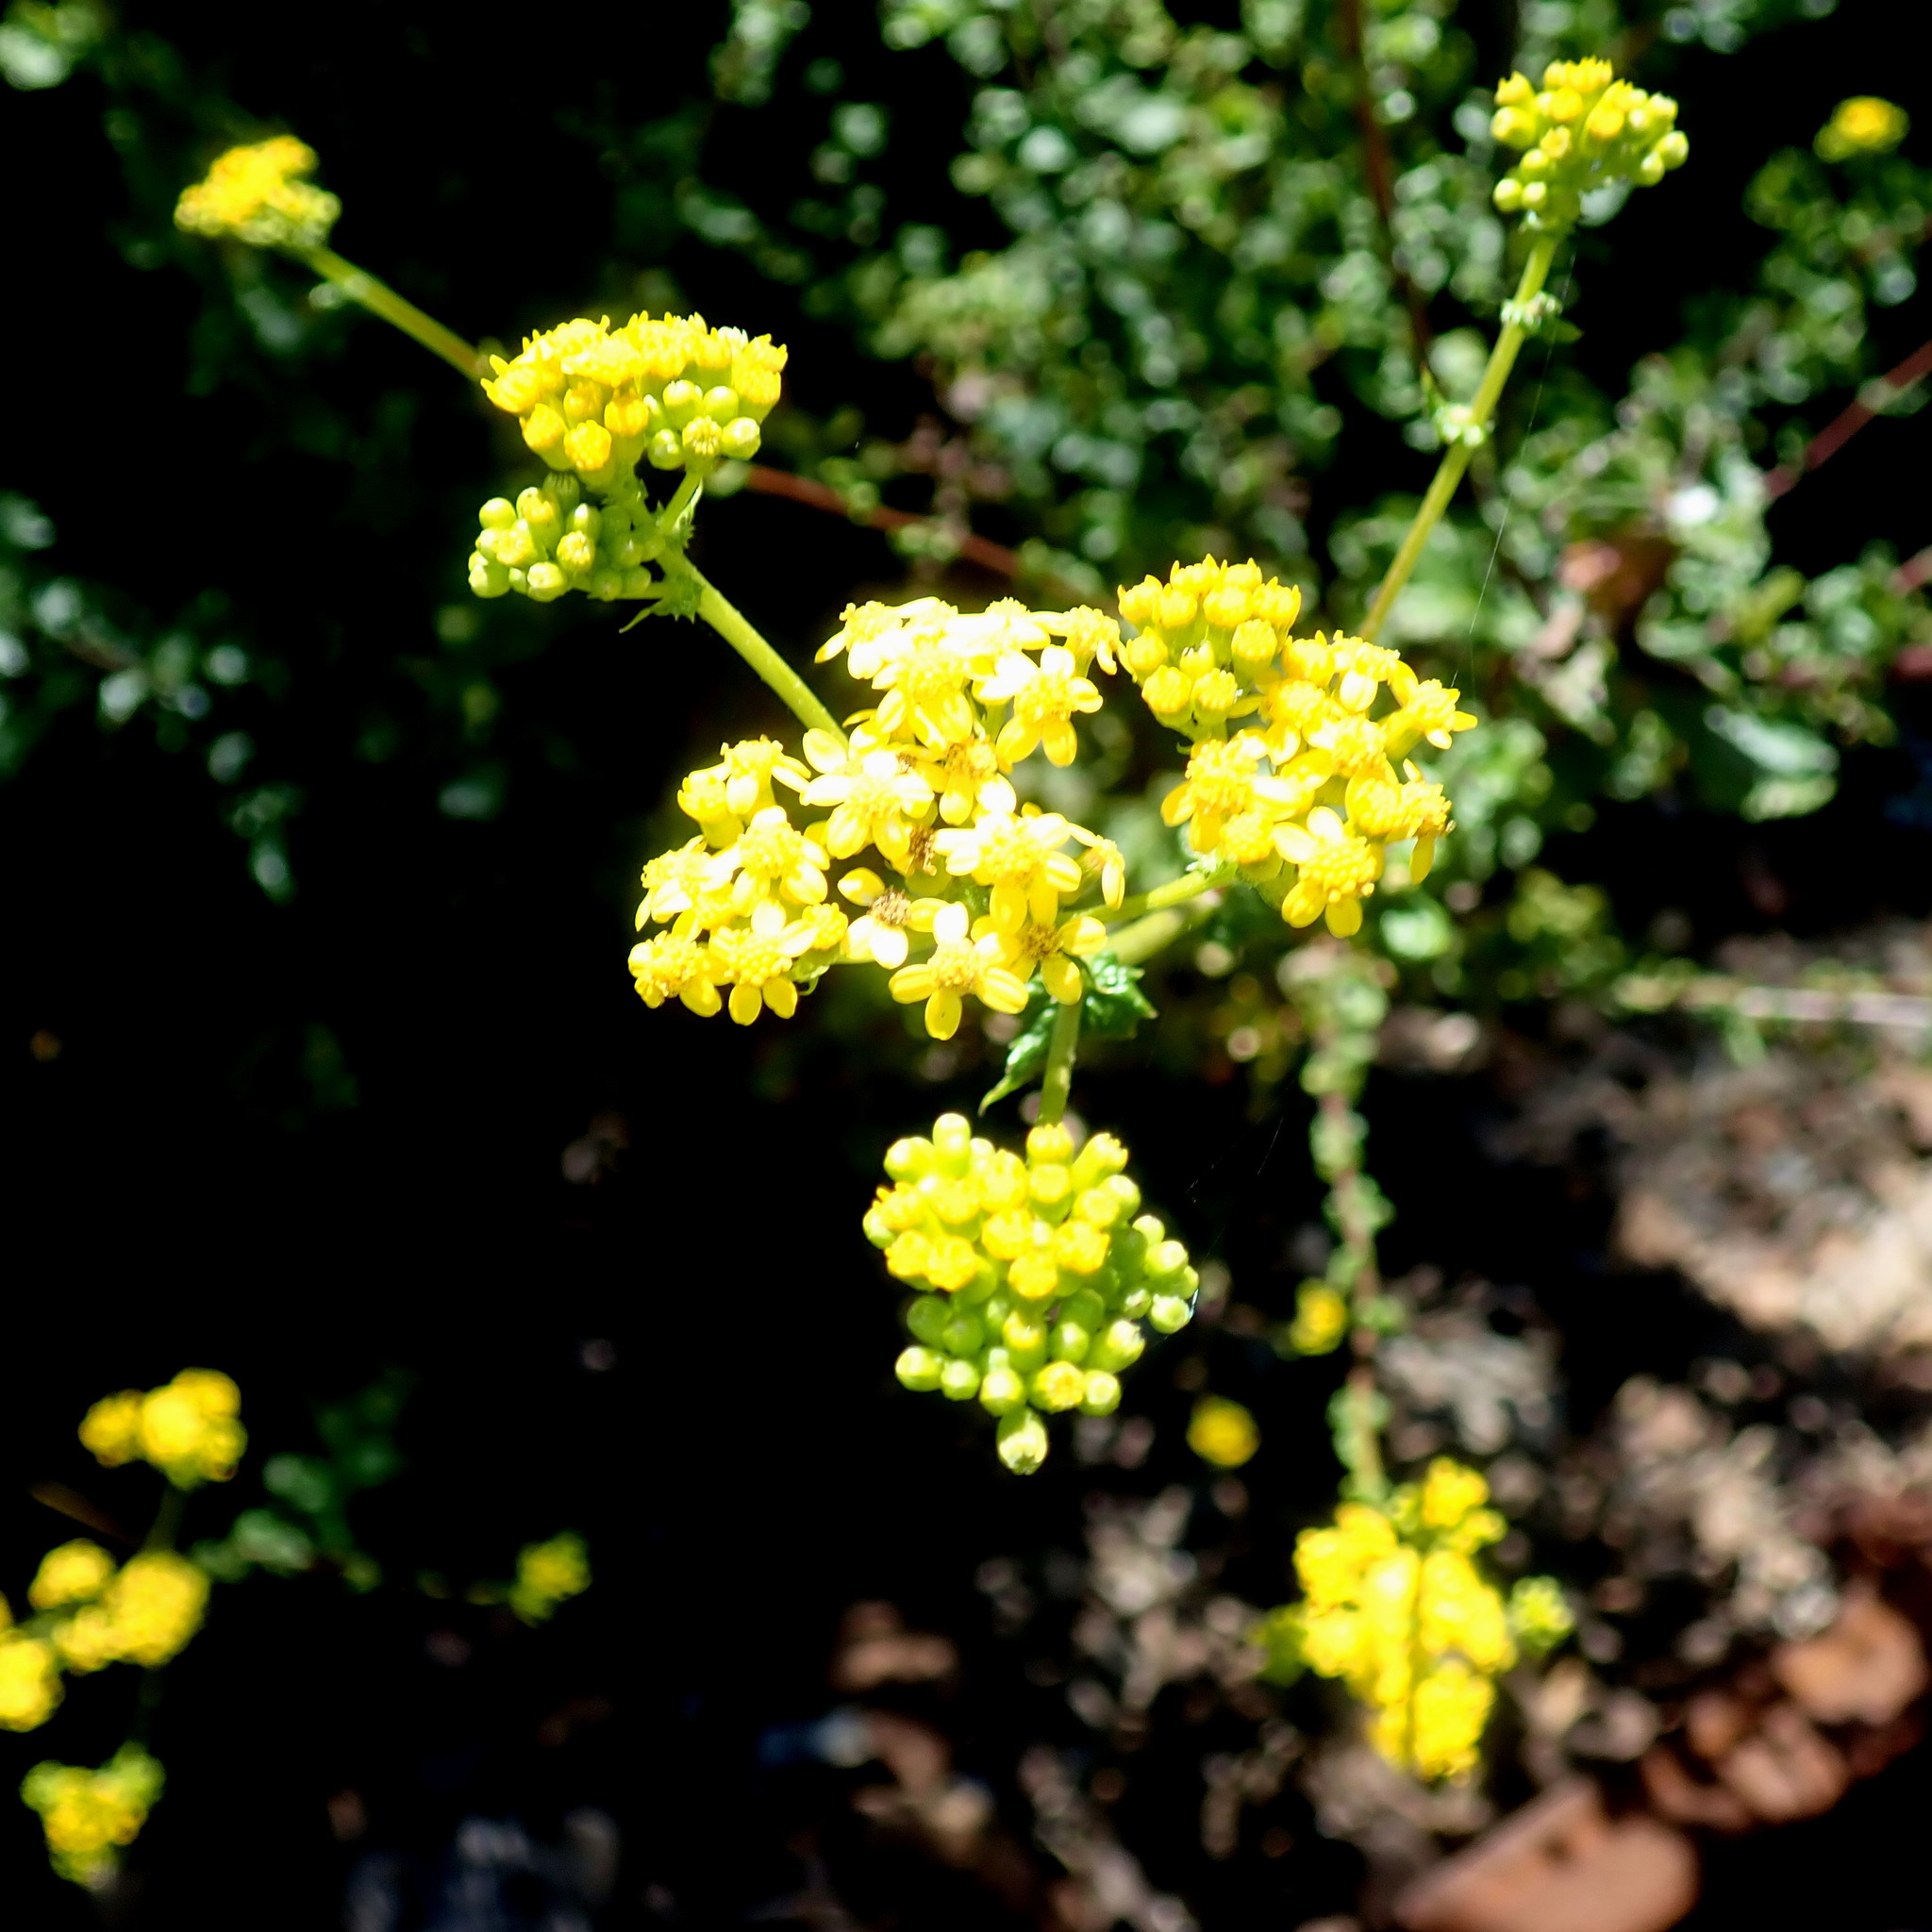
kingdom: Plantae
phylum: Tracheophyta
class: Magnoliopsida
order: Asterales
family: Asteraceae
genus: Senecio
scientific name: Senecio rigidus
